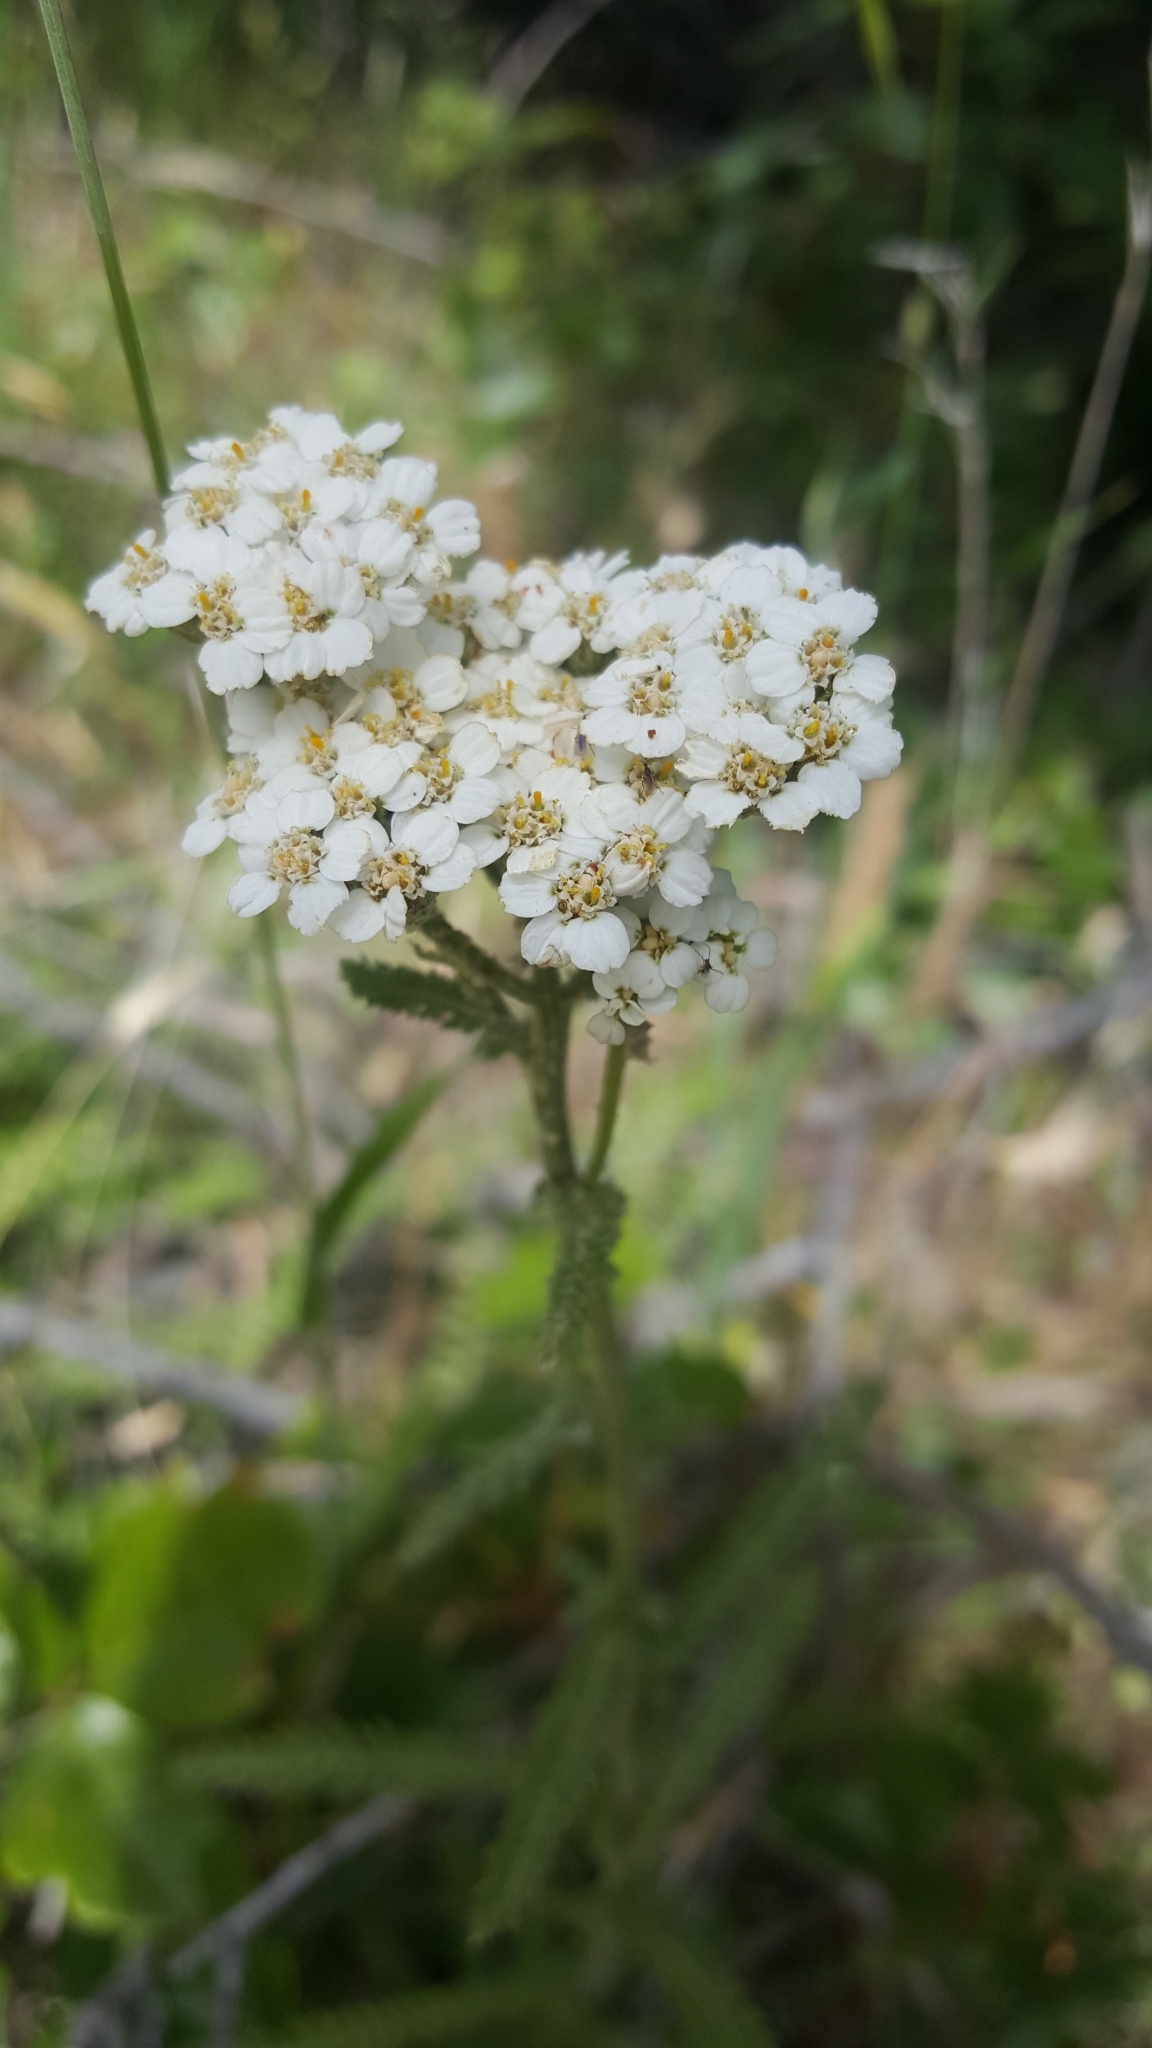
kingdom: Plantae
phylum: Tracheophyta
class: Magnoliopsida
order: Asterales
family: Asteraceae
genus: Achillea
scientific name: Achillea millefolium
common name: Yarrow
